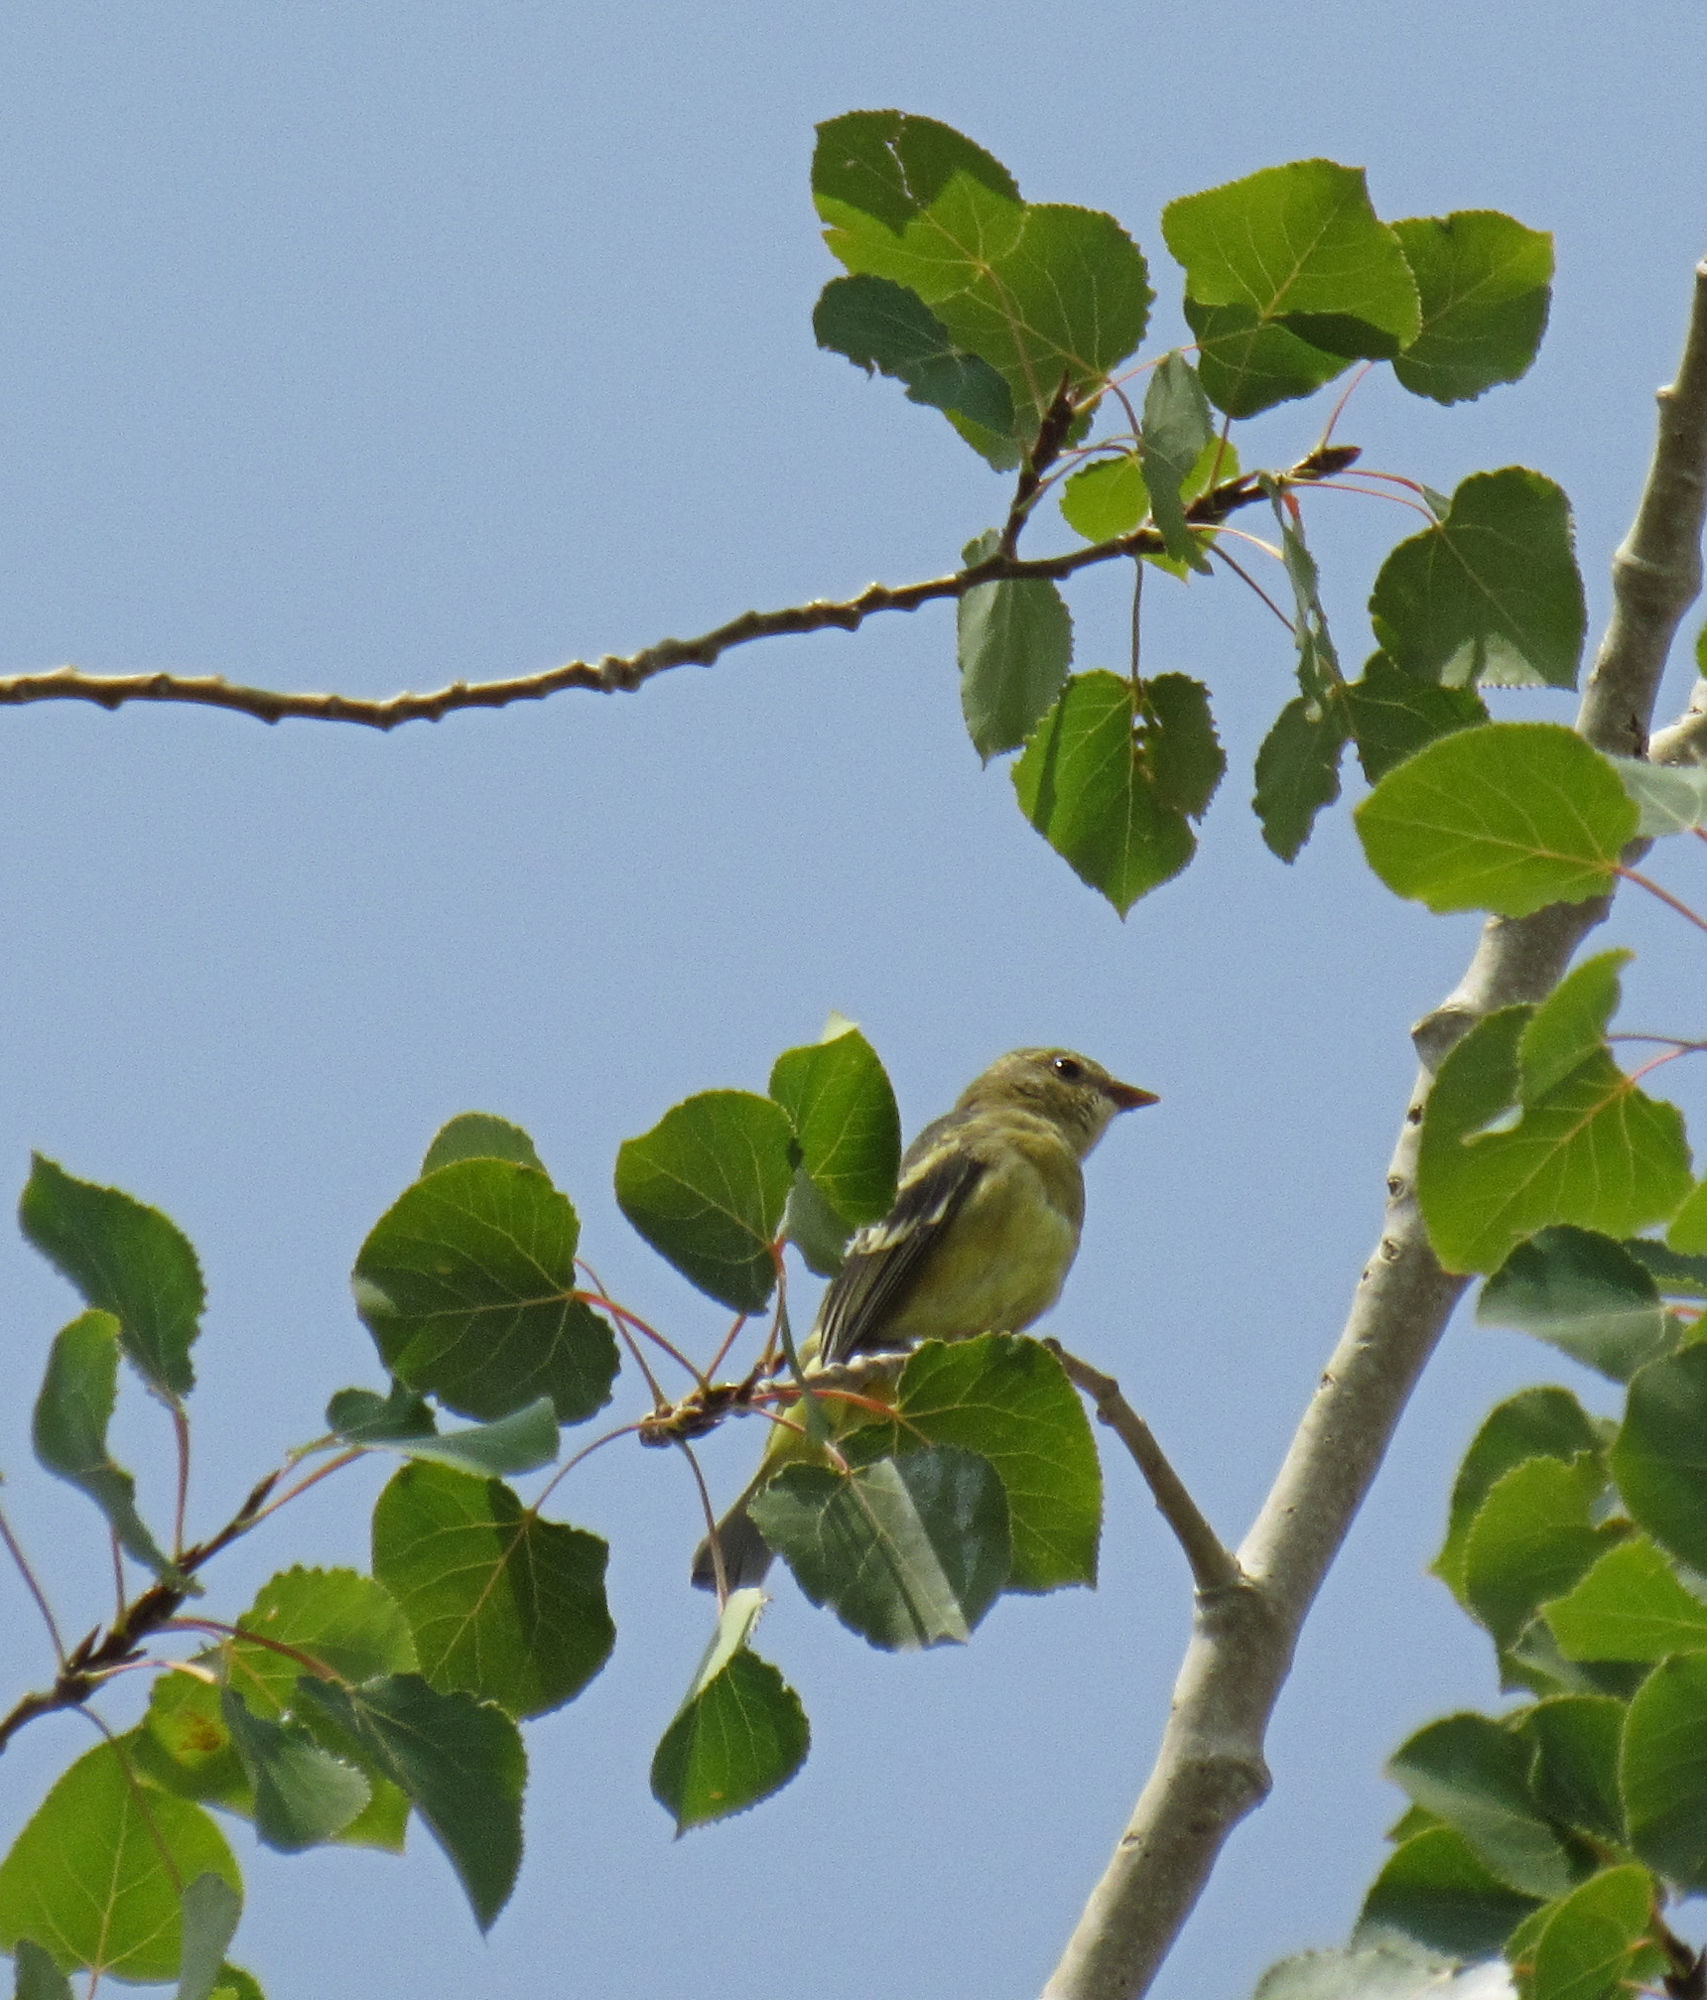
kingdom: Animalia
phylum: Chordata
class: Aves
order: Passeriformes
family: Cardinalidae
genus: Piranga
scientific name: Piranga ludoviciana
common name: Western tanager
